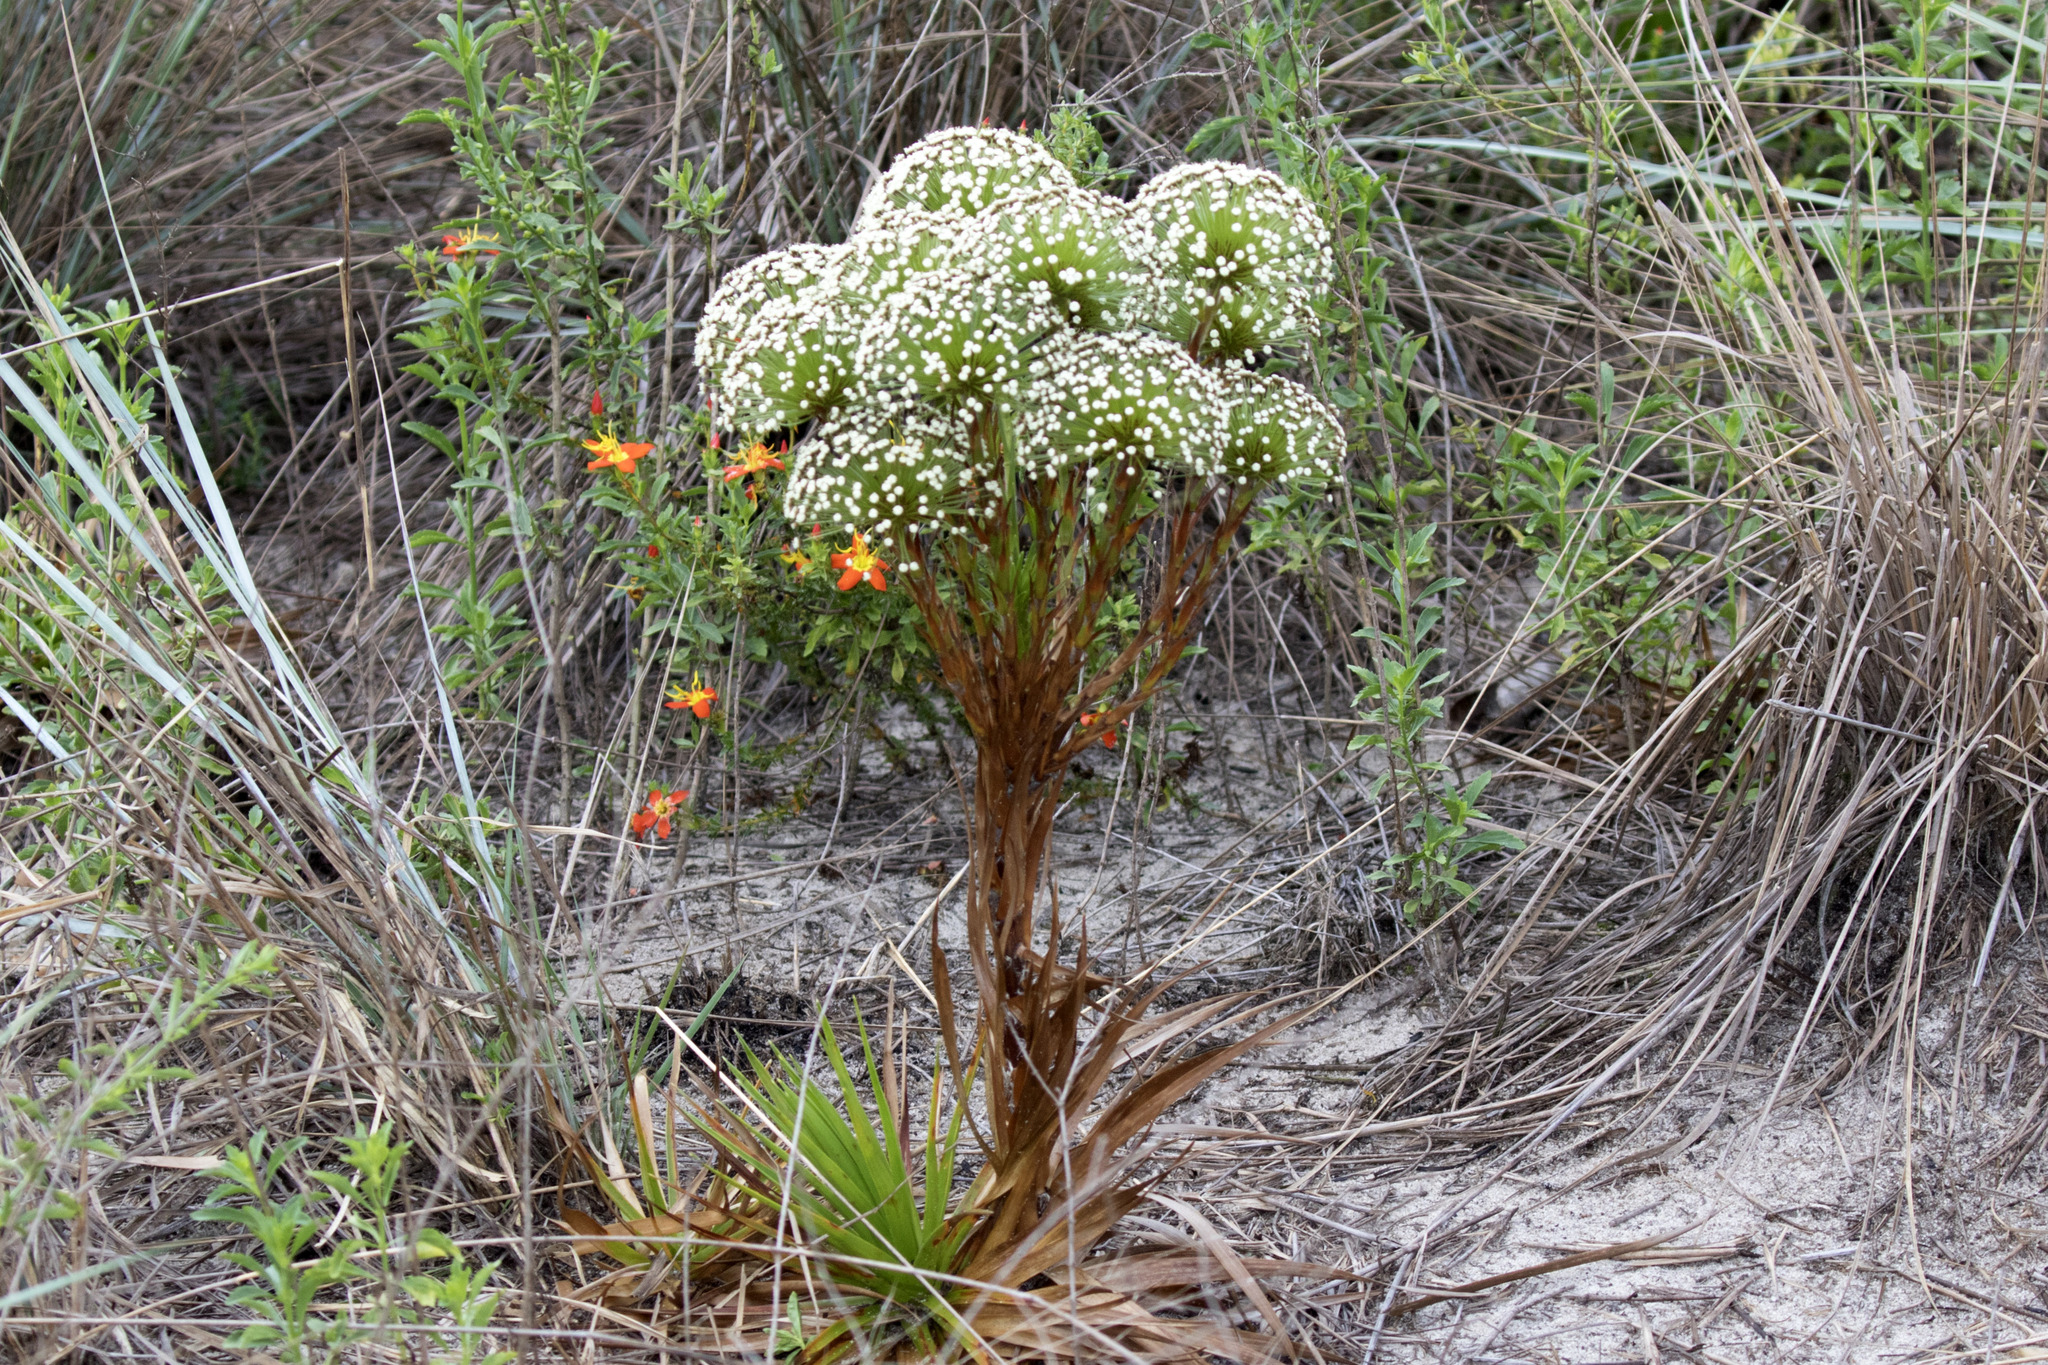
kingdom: Plantae
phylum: Tracheophyta
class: Liliopsida
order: Poales
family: Eriocaulaceae
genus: Paepalanthus
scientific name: Paepalanthus hilairei
